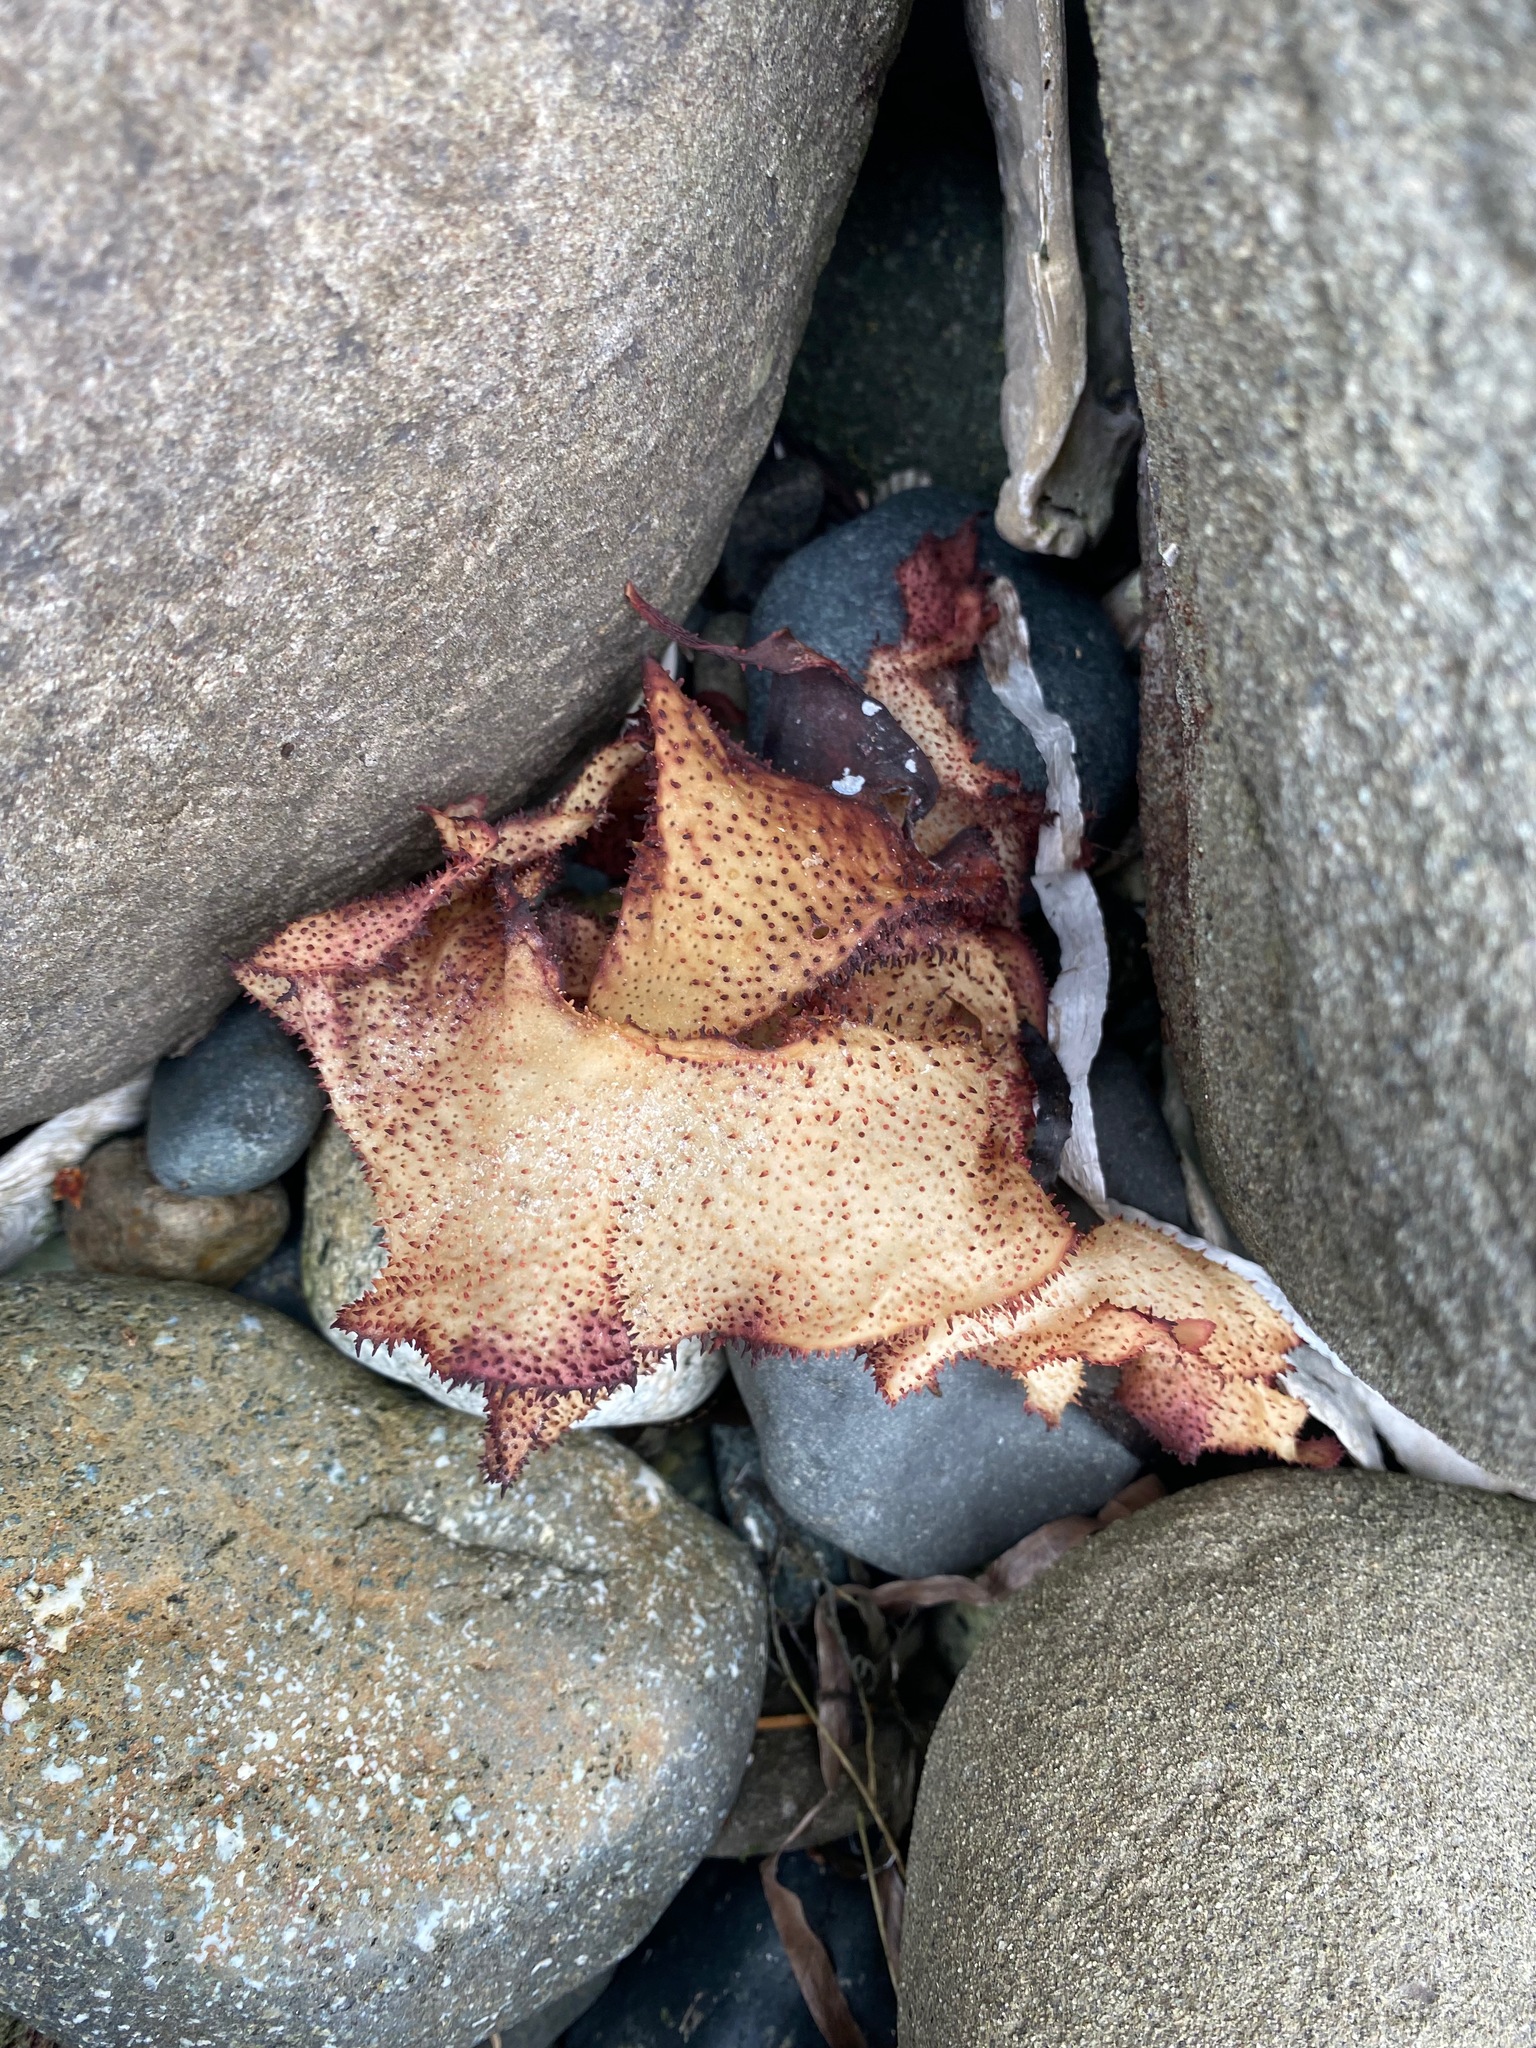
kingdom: Plantae
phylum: Rhodophyta
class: Florideophyceae
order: Gigartinales
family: Gigartinaceae
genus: Chondracanthus
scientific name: Chondracanthus exasperatus
